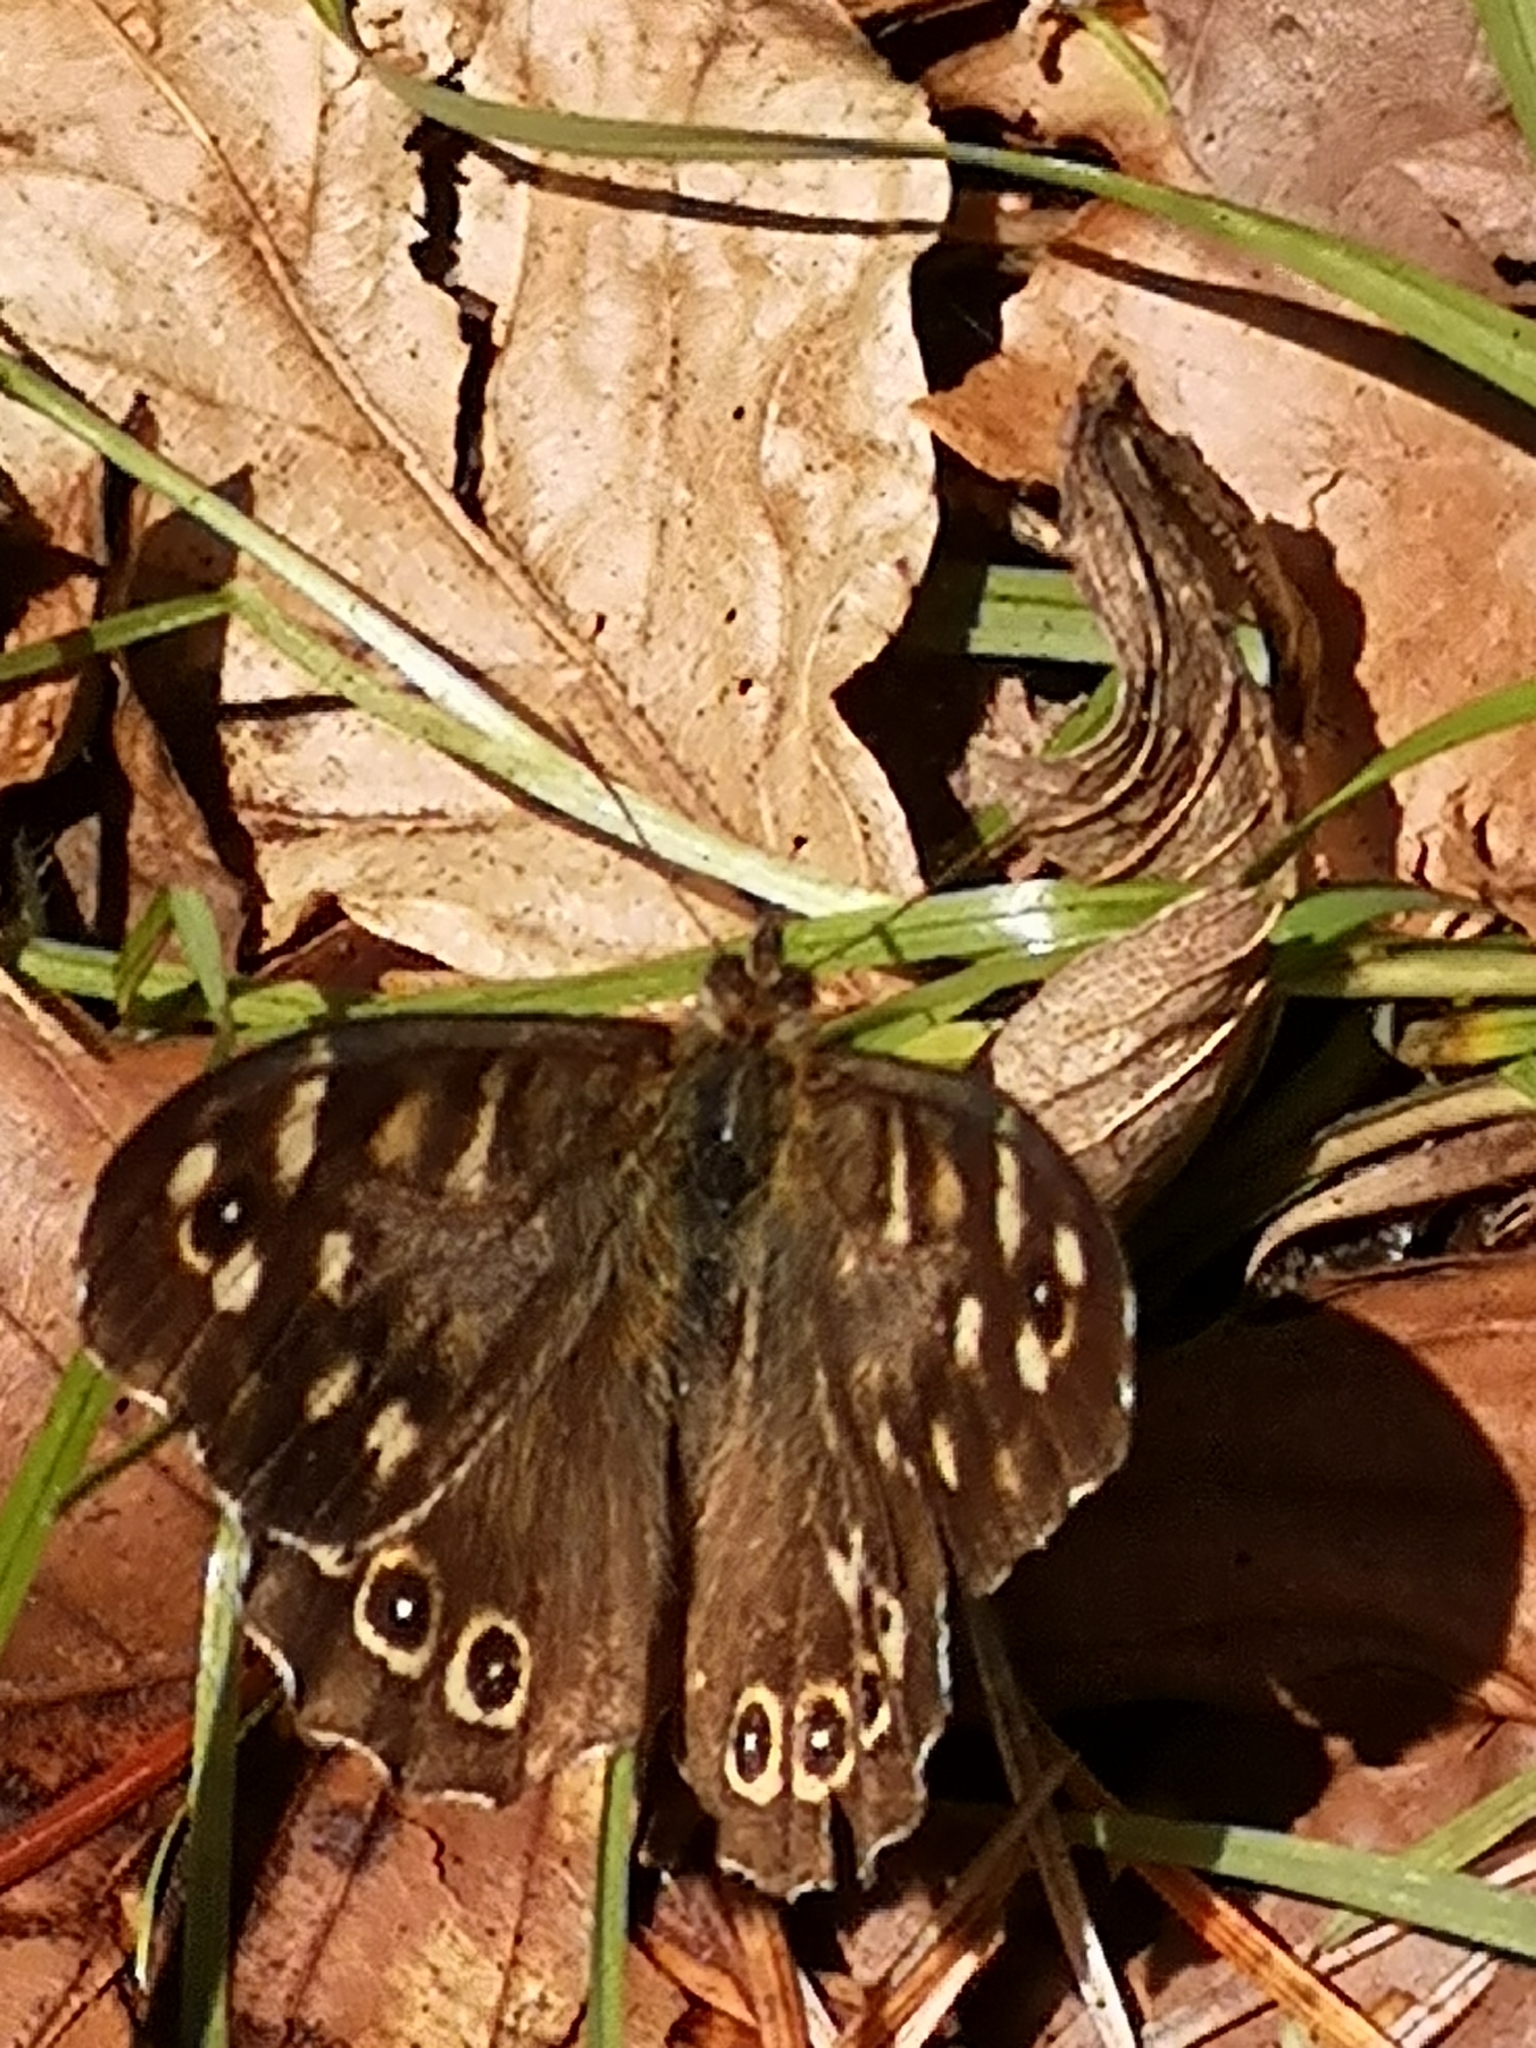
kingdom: Animalia
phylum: Arthropoda
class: Insecta
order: Lepidoptera
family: Nymphalidae
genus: Pararge
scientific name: Pararge aegeria
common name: Speckled wood
